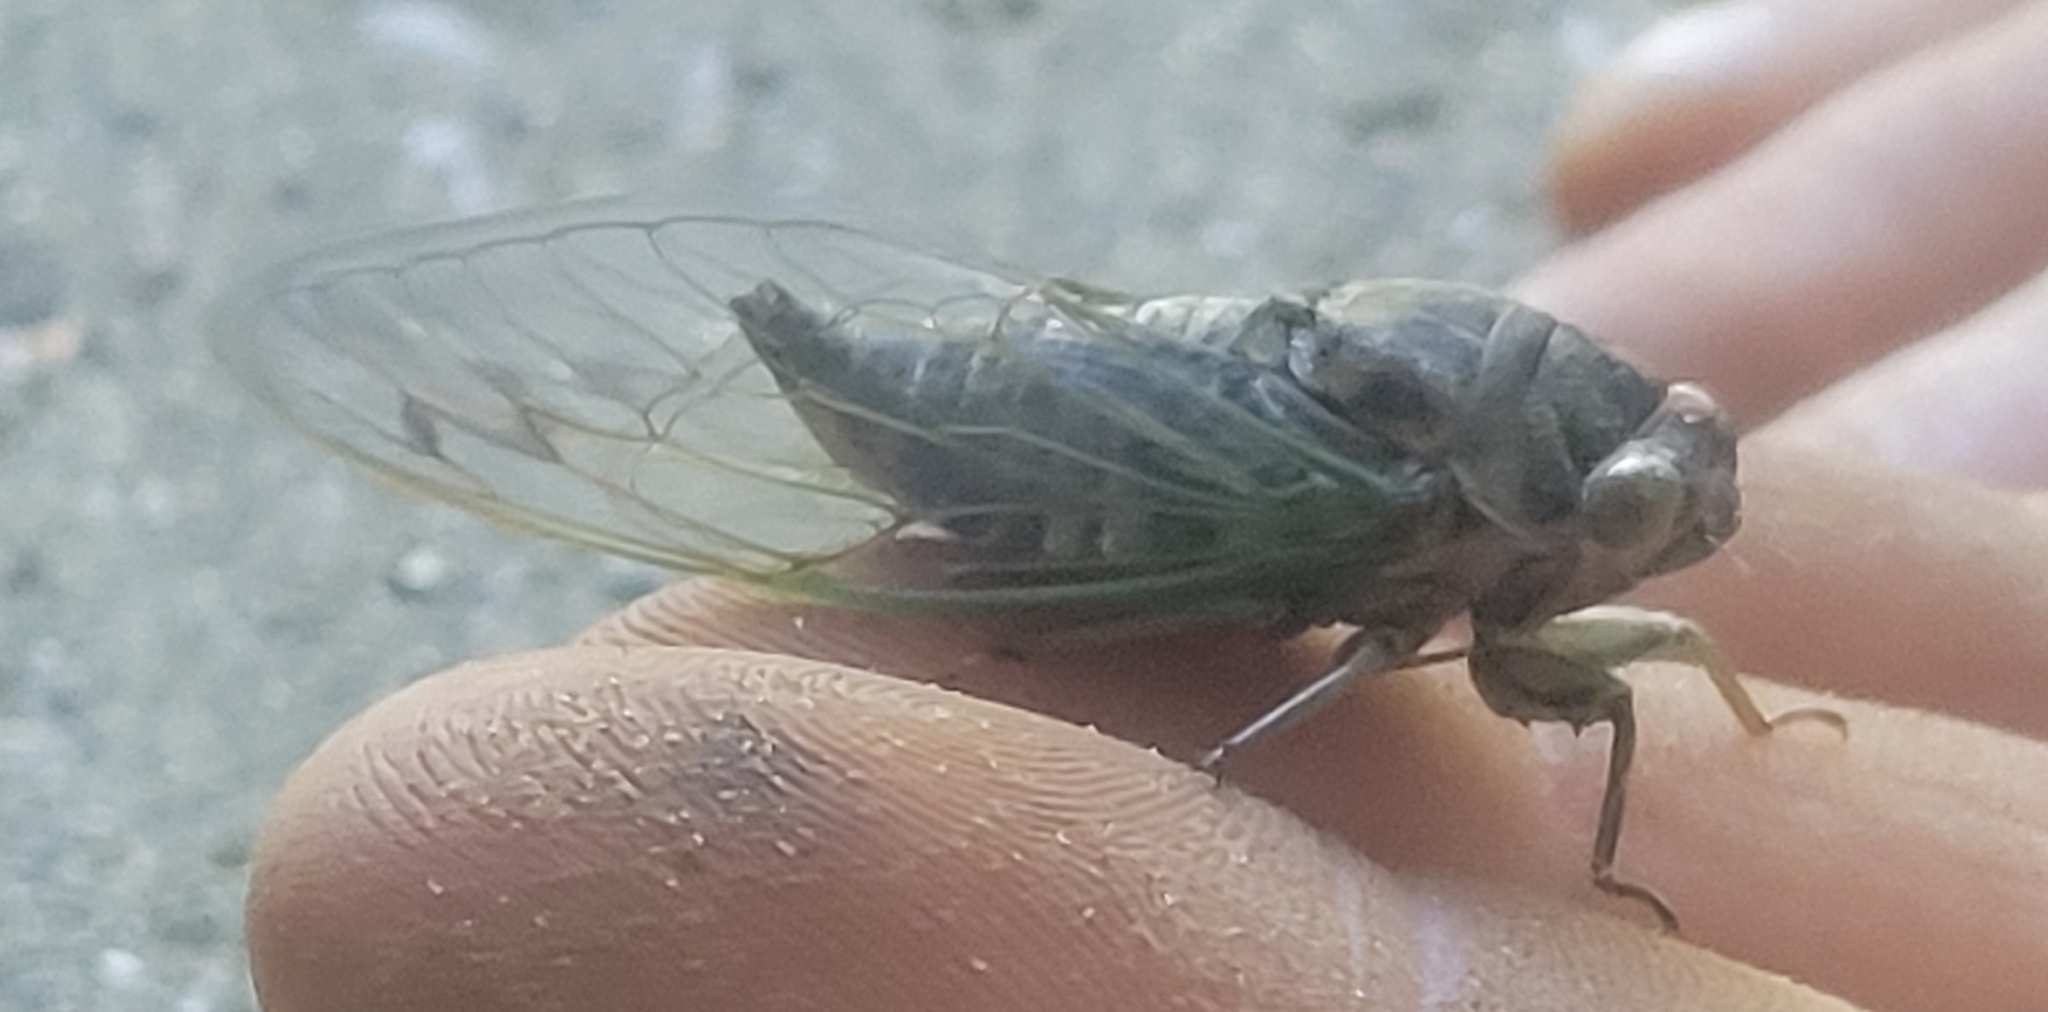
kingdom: Animalia
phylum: Arthropoda
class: Insecta
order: Hemiptera
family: Cicadidae
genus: Neotibicen
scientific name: Neotibicen canicularis
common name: God-day cicada
